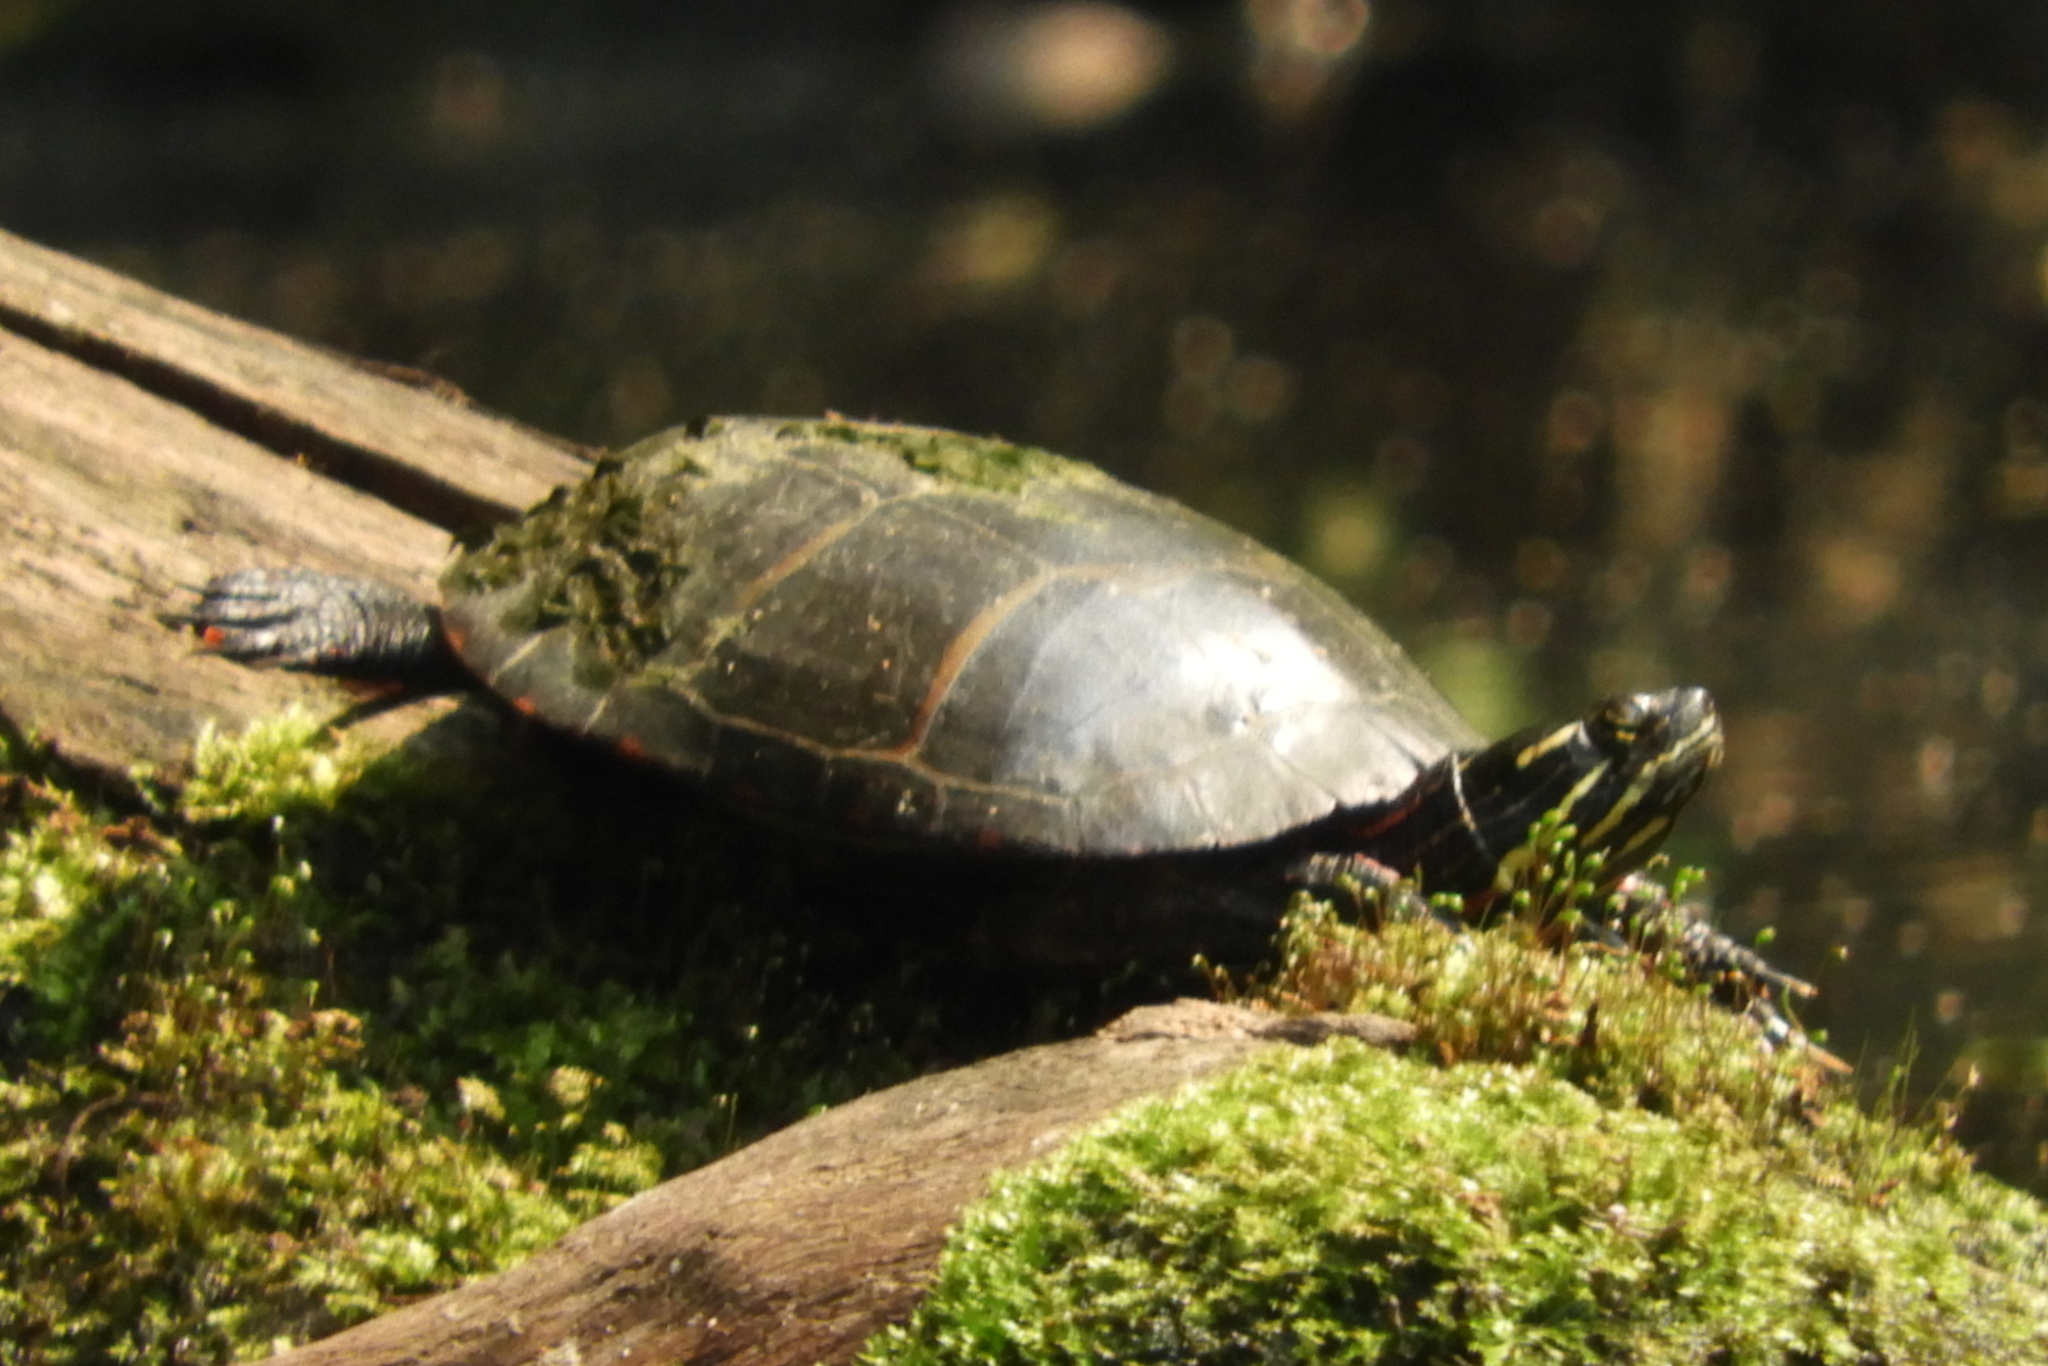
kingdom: Animalia
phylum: Chordata
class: Testudines
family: Emydidae
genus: Chrysemys
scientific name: Chrysemys picta
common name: Painted turtle
